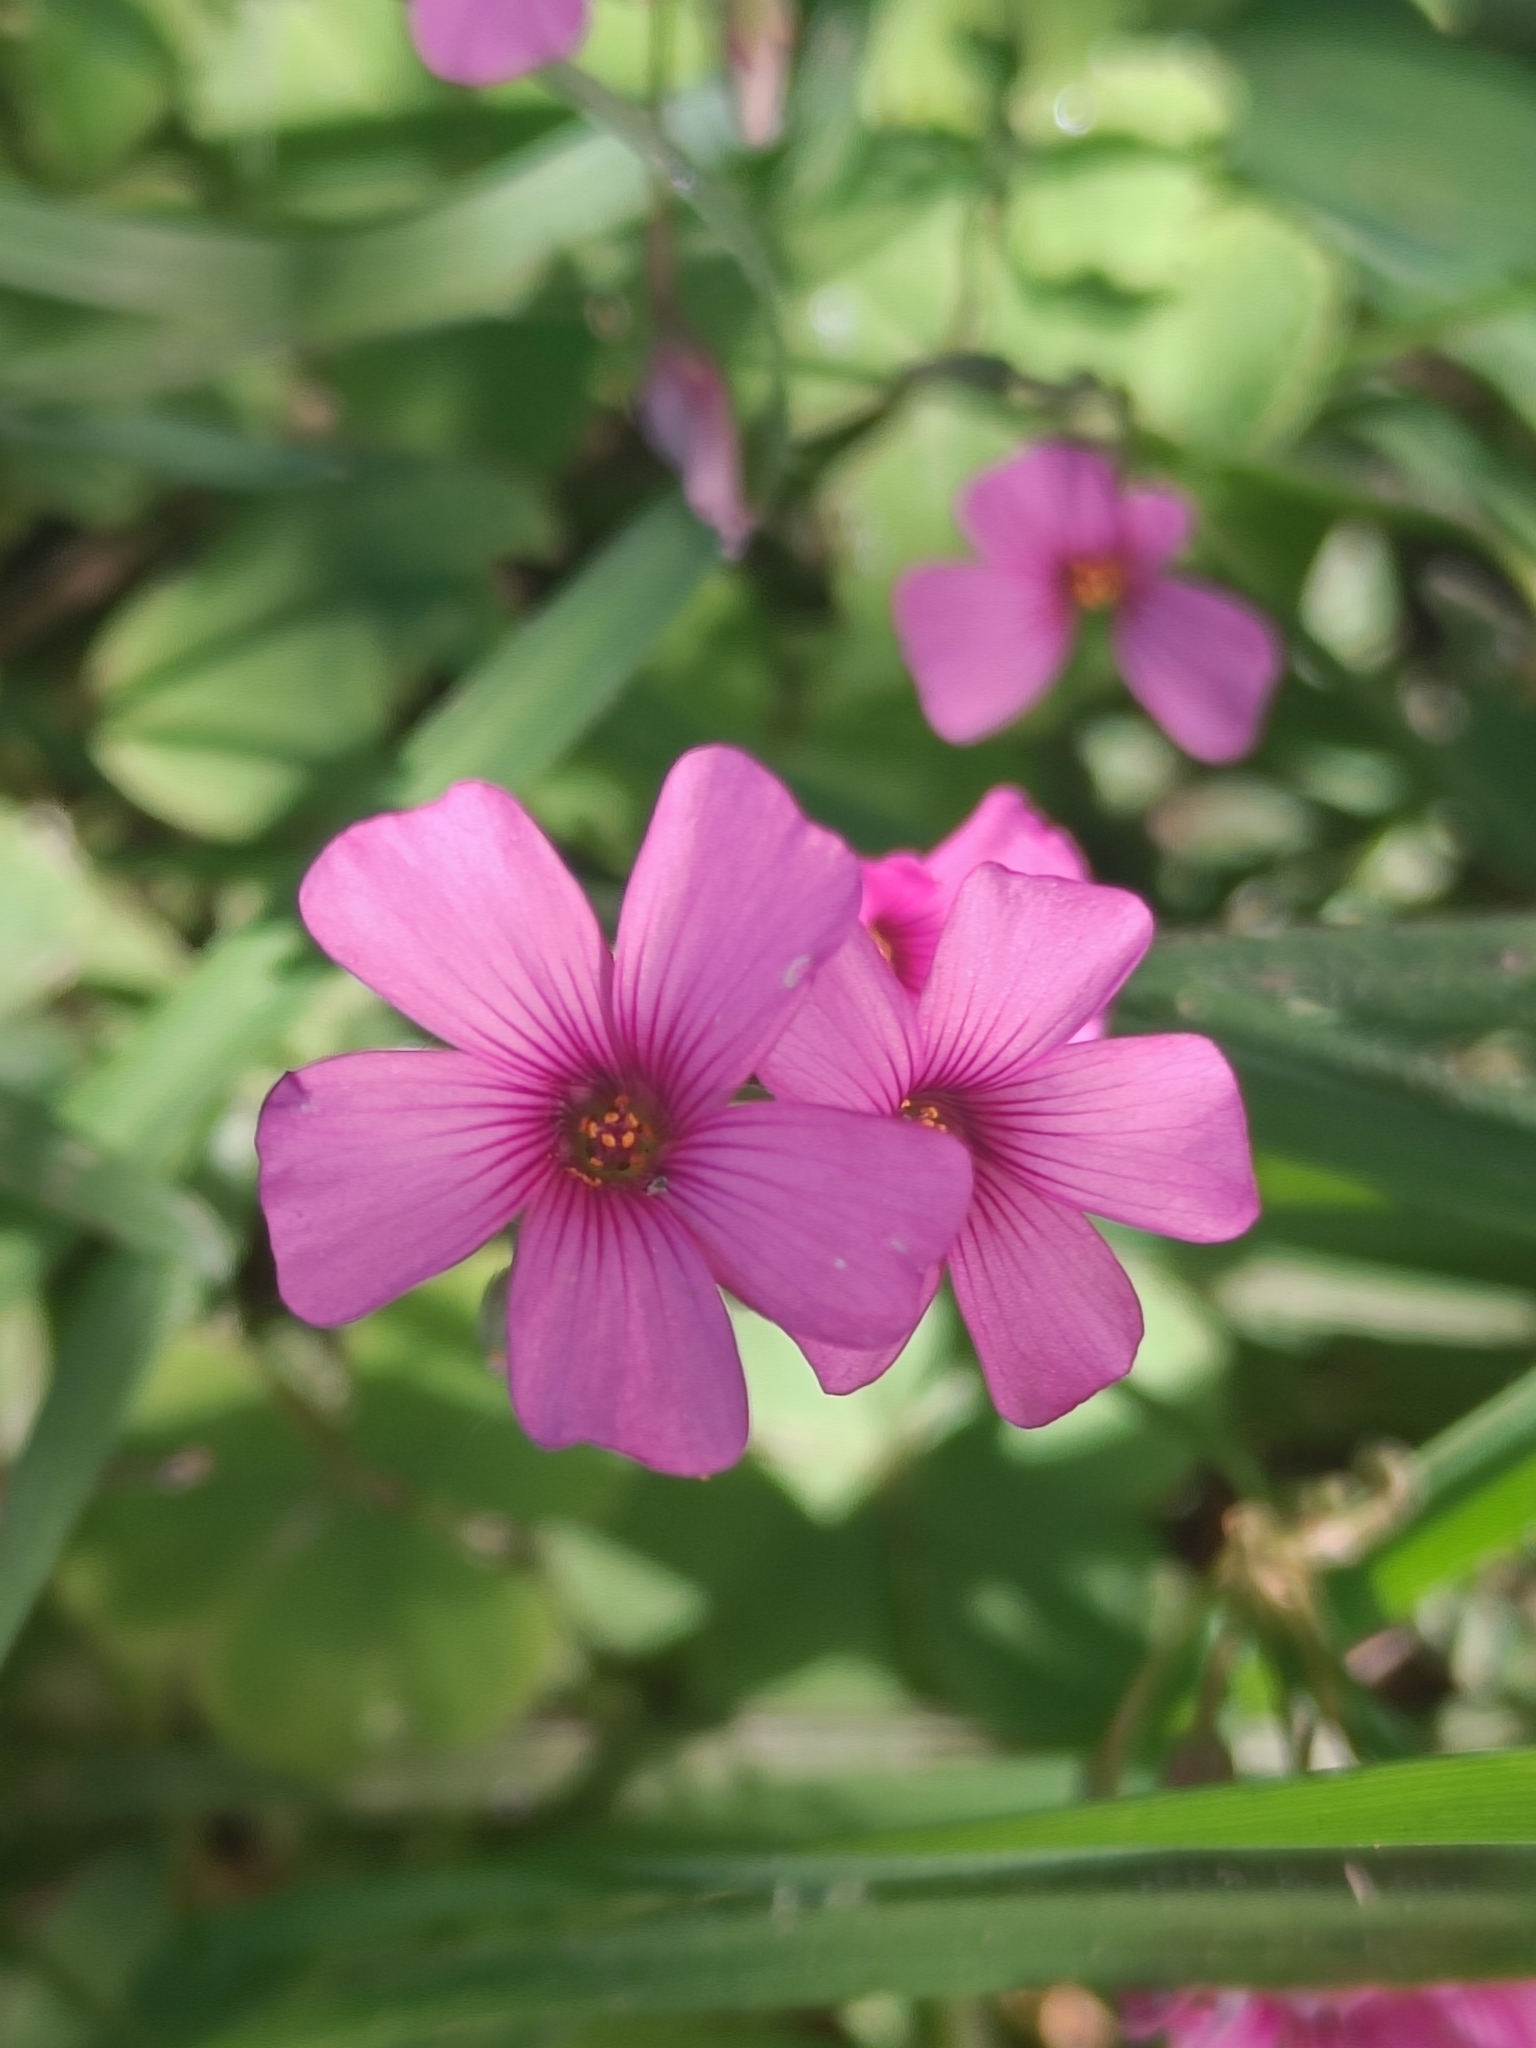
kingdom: Plantae
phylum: Tracheophyta
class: Magnoliopsida
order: Oxalidales
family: Oxalidaceae
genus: Oxalis
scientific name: Oxalis articulata
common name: Pink-sorrel
